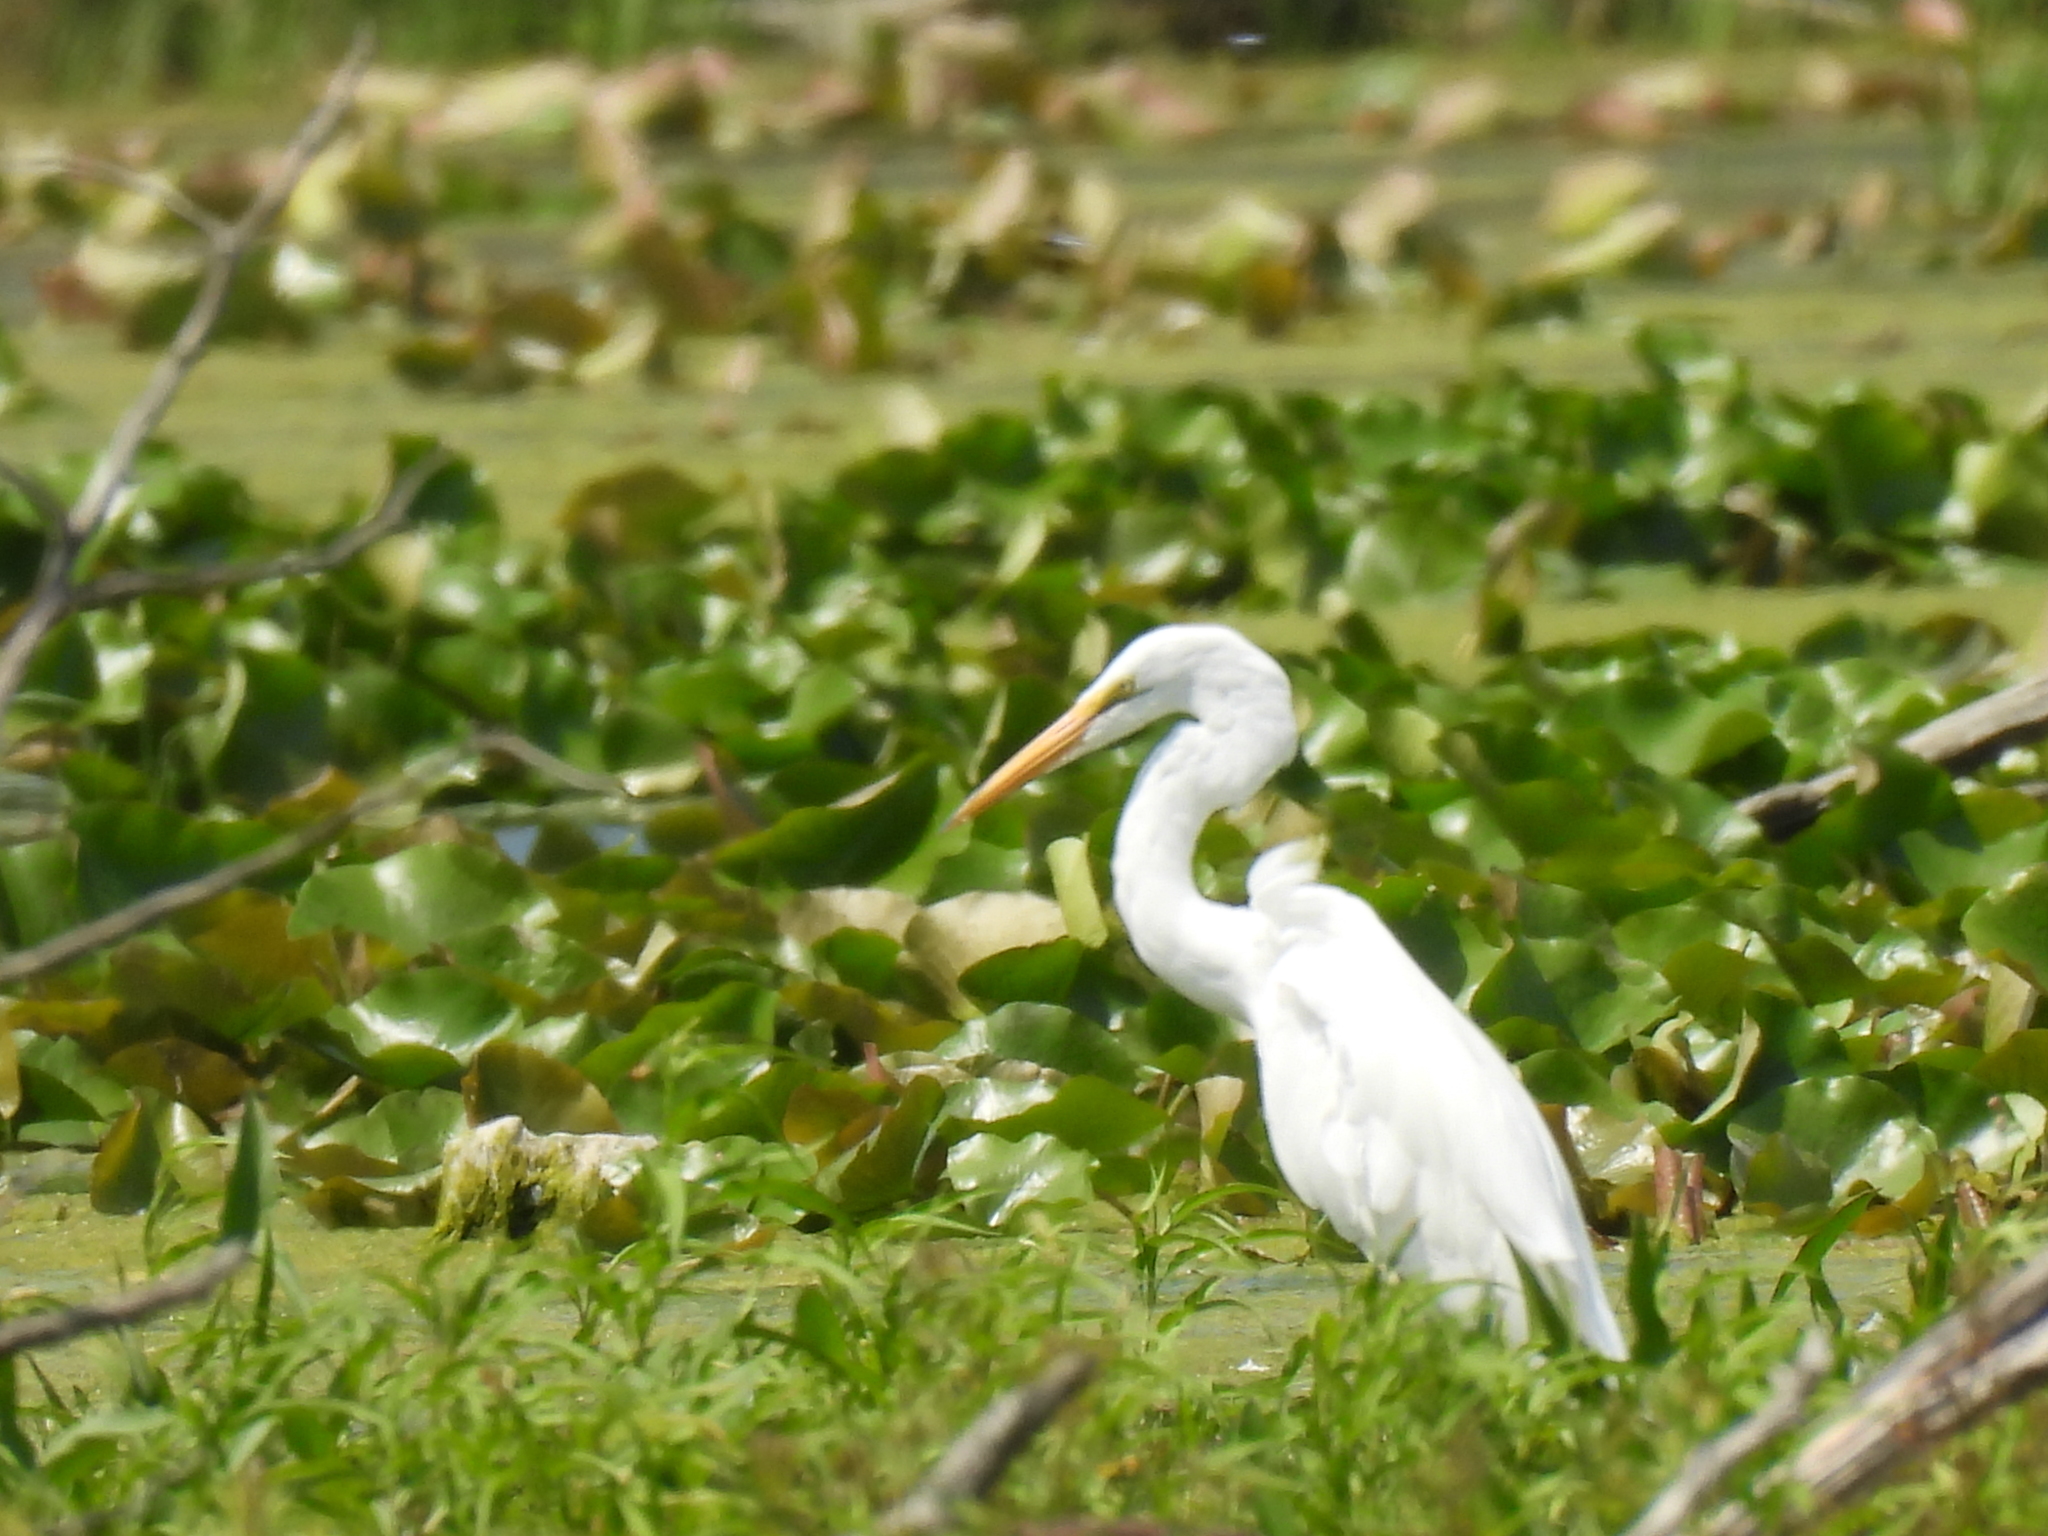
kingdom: Animalia
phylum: Chordata
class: Aves
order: Pelecaniformes
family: Ardeidae
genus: Ardea
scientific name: Ardea alba
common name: Great egret
